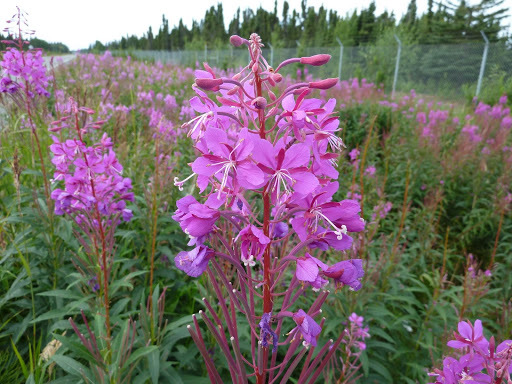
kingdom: Plantae
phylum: Tracheophyta
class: Magnoliopsida
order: Myrtales
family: Onagraceae
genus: Chamaenerion
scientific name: Chamaenerion angustifolium
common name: Fireweed
